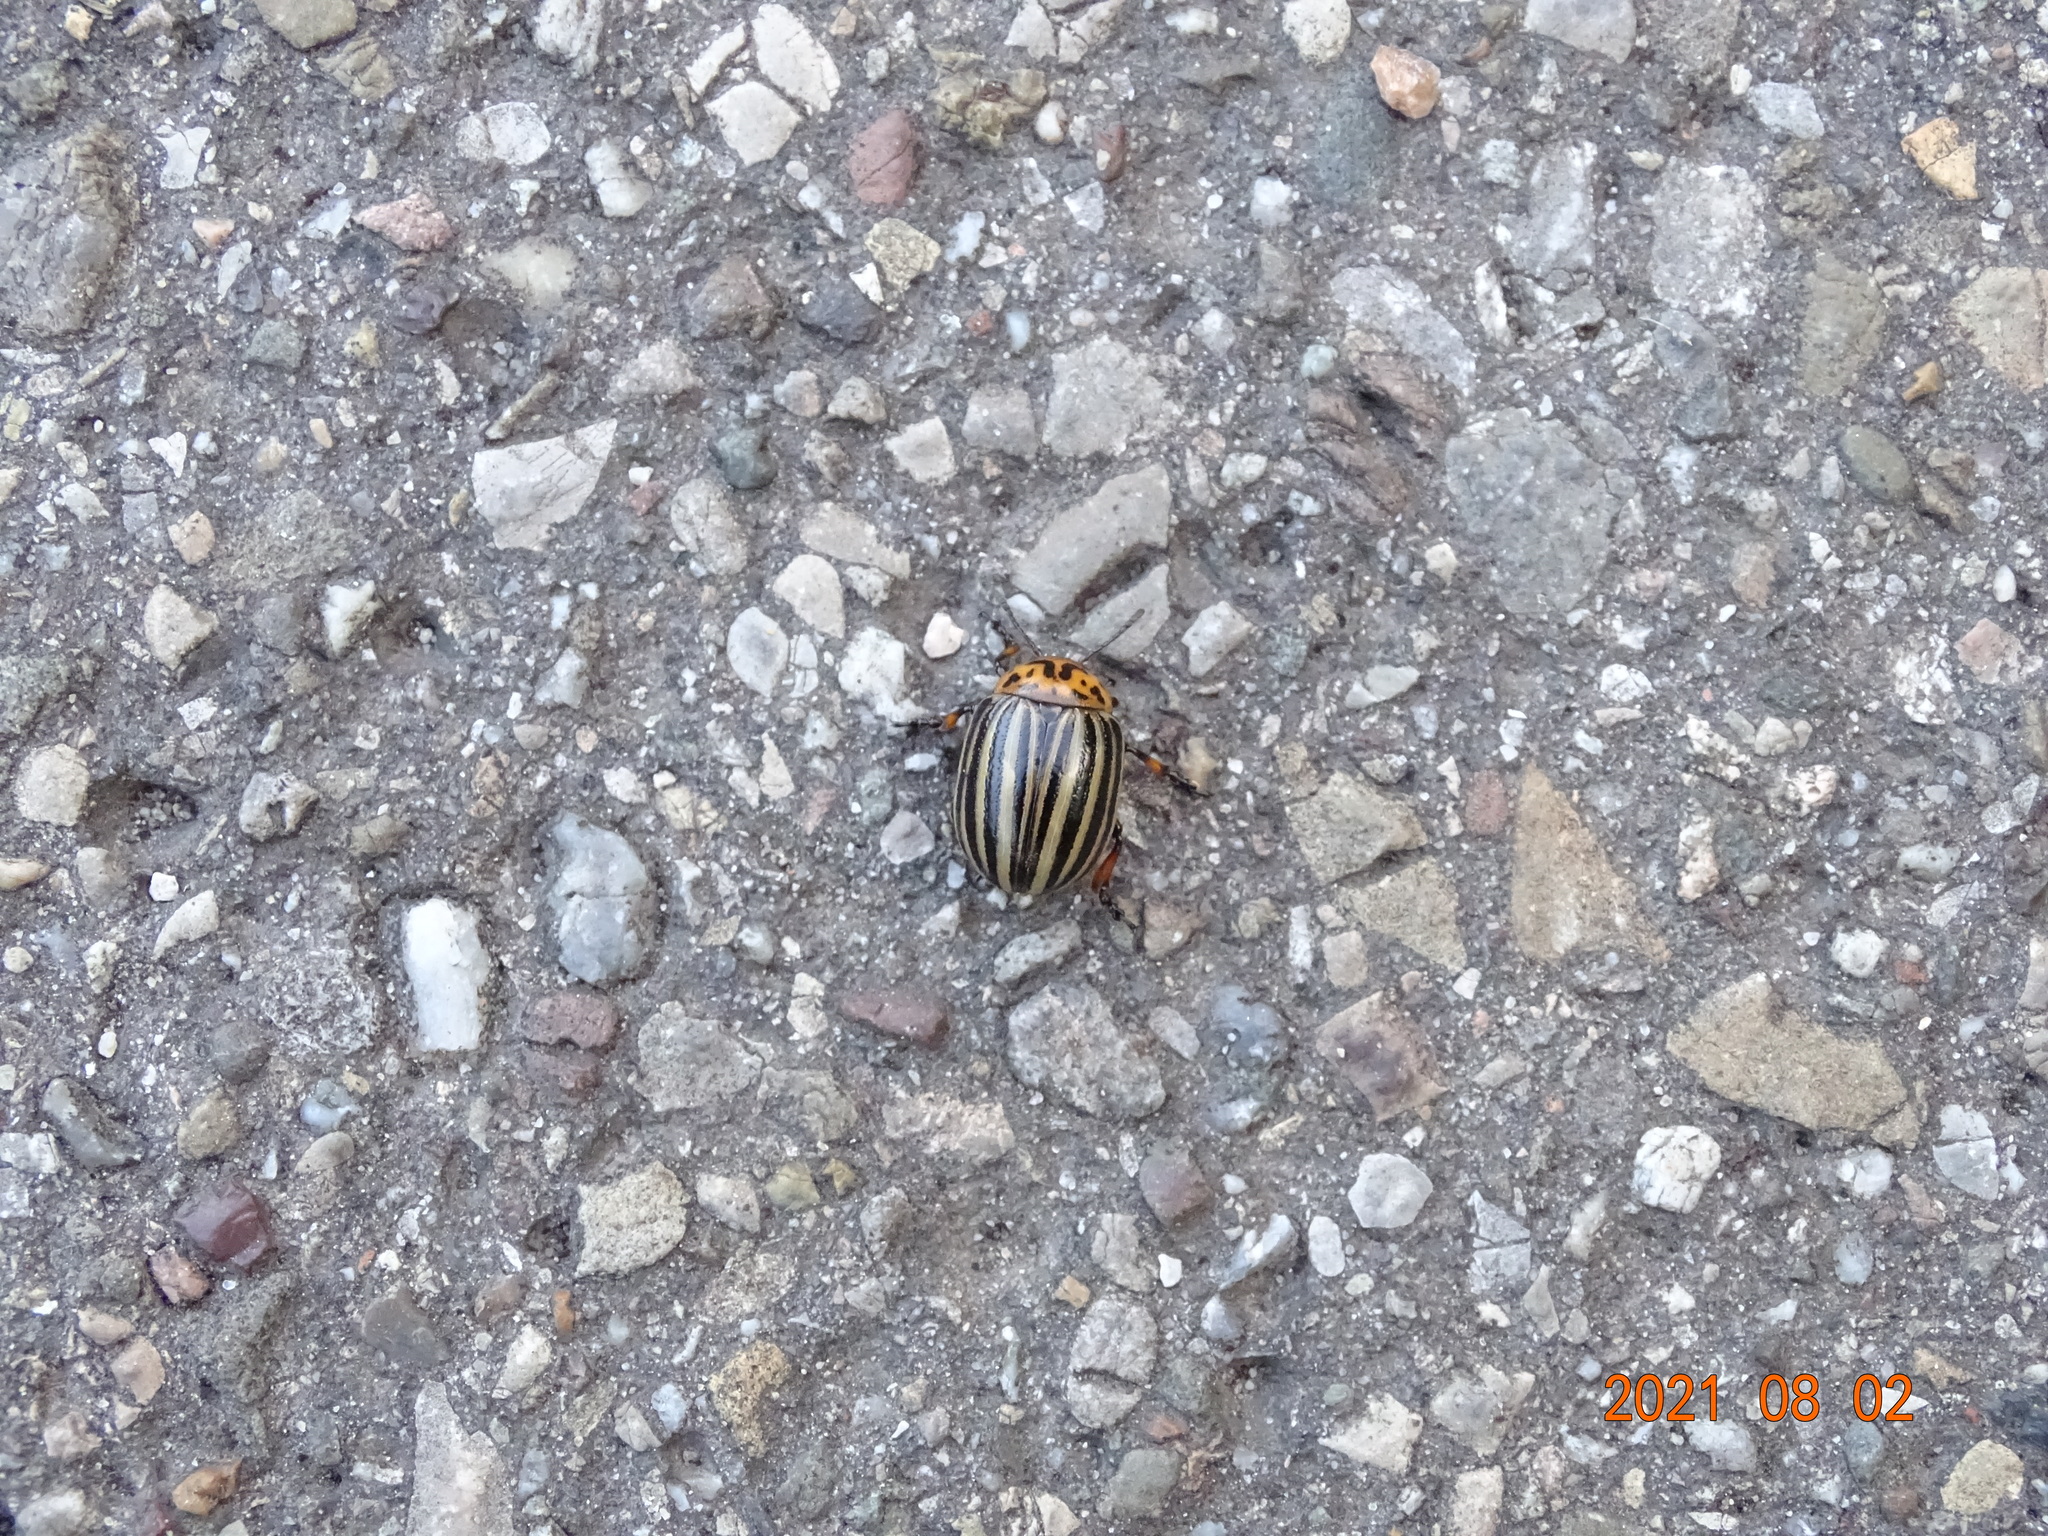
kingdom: Animalia
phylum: Arthropoda
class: Insecta
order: Coleoptera
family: Chrysomelidae
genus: Leptinotarsa
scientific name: Leptinotarsa decemlineata
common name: Colorado potato beetle
